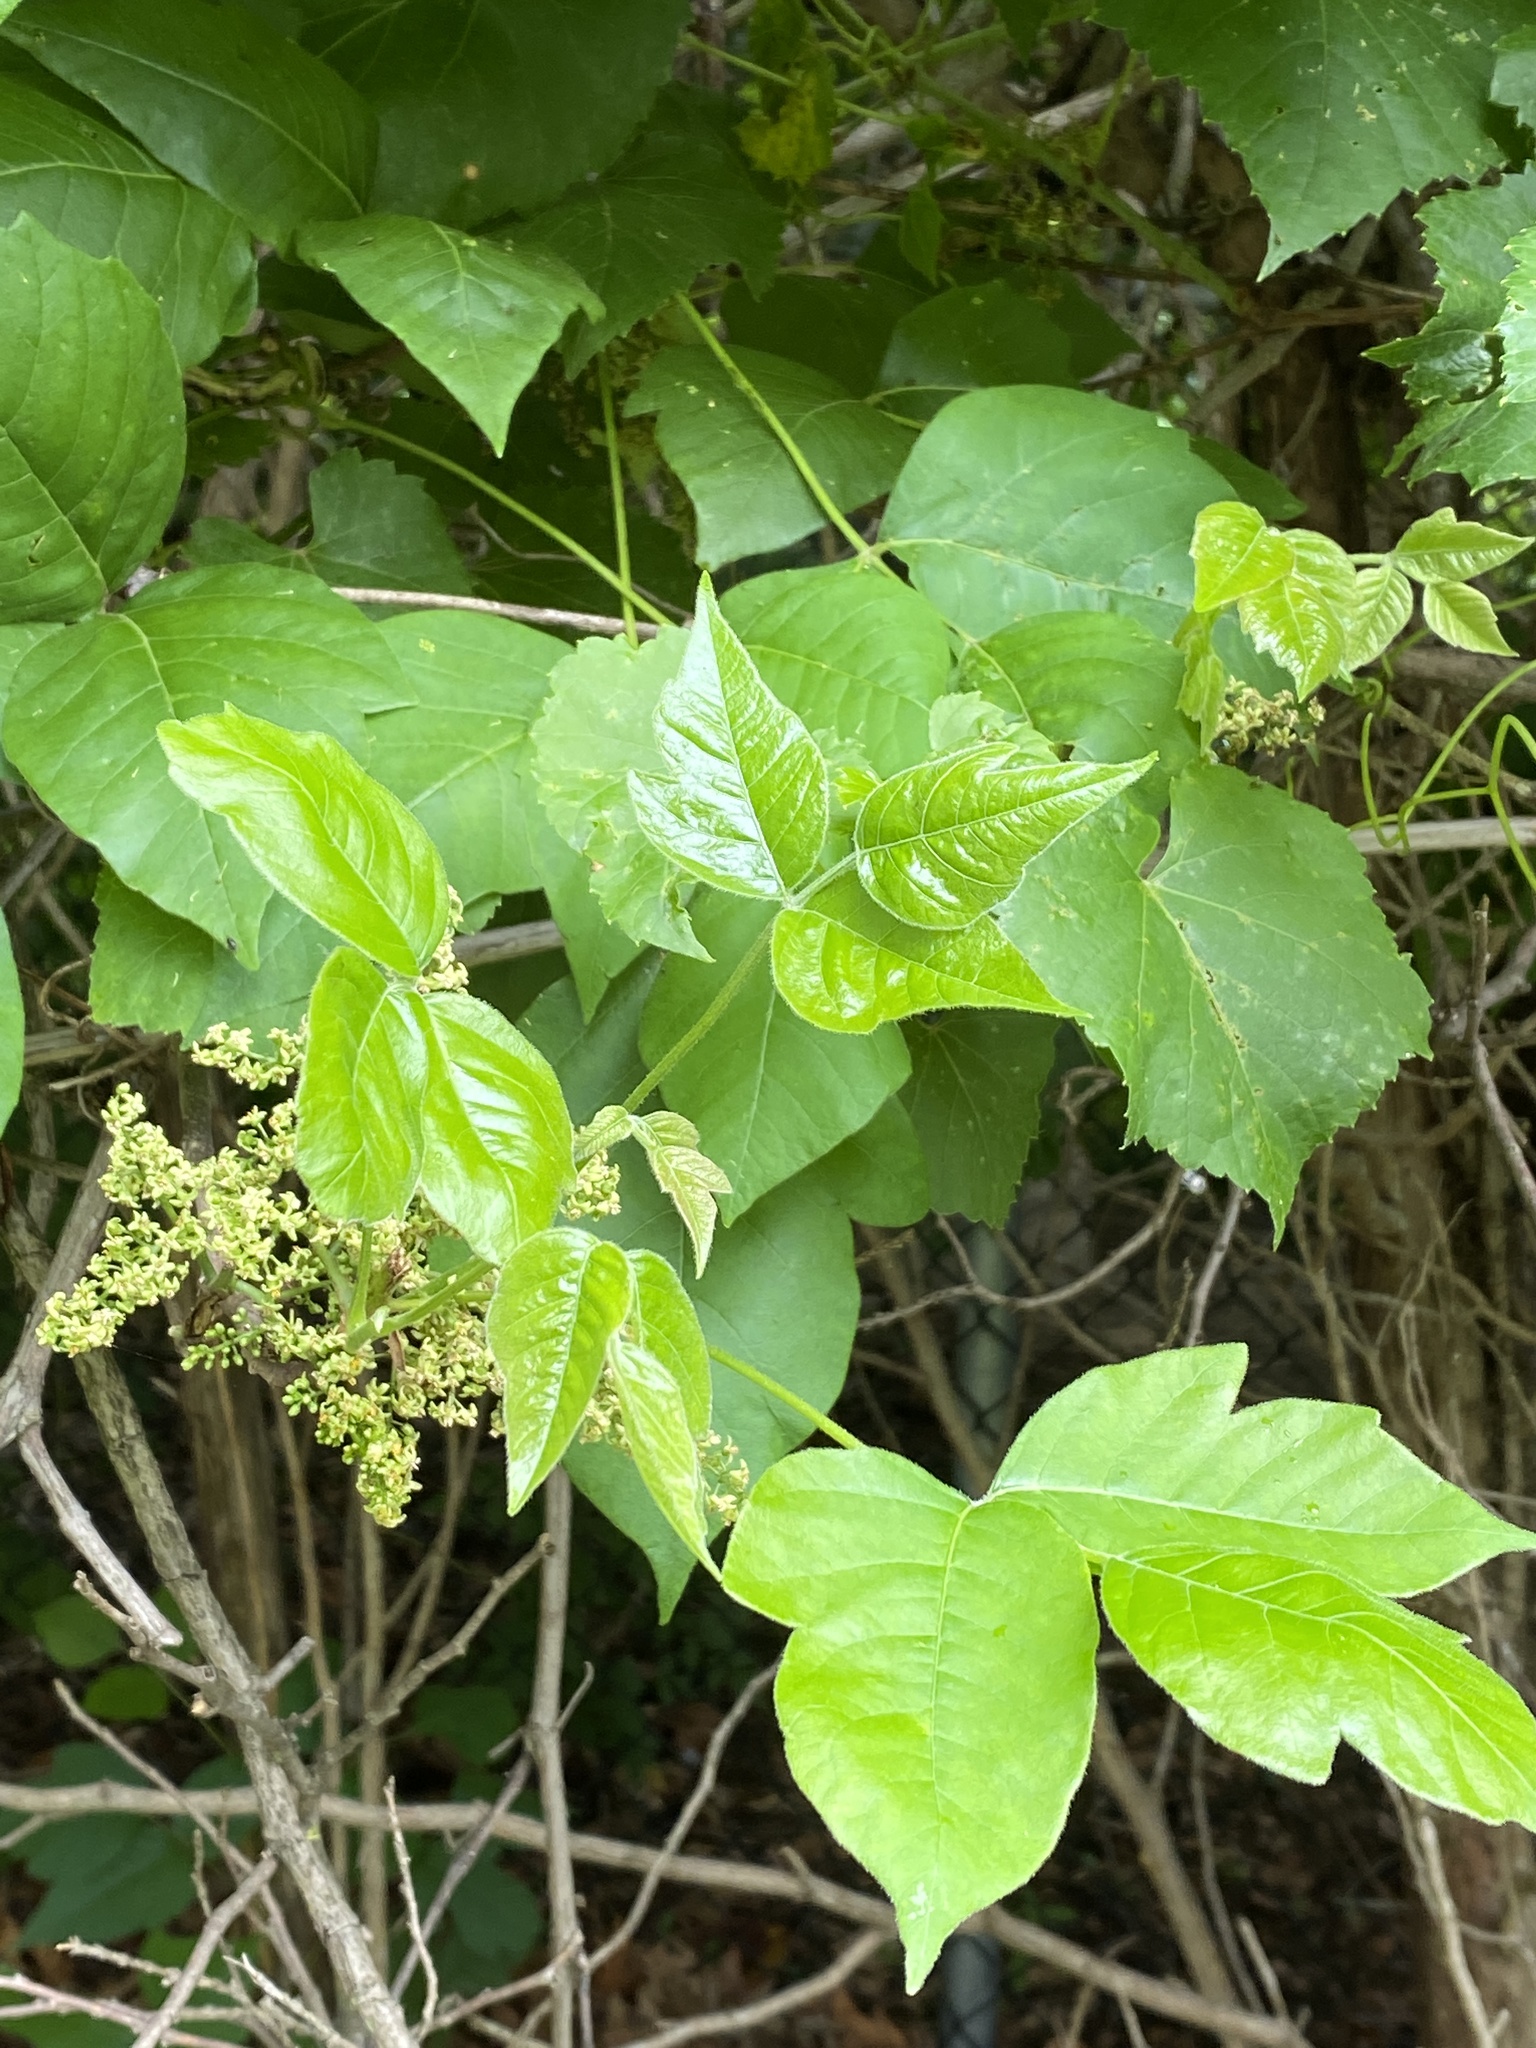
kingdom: Plantae
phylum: Tracheophyta
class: Magnoliopsida
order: Sapindales
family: Anacardiaceae
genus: Toxicodendron
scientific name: Toxicodendron radicans
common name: Poison ivy
